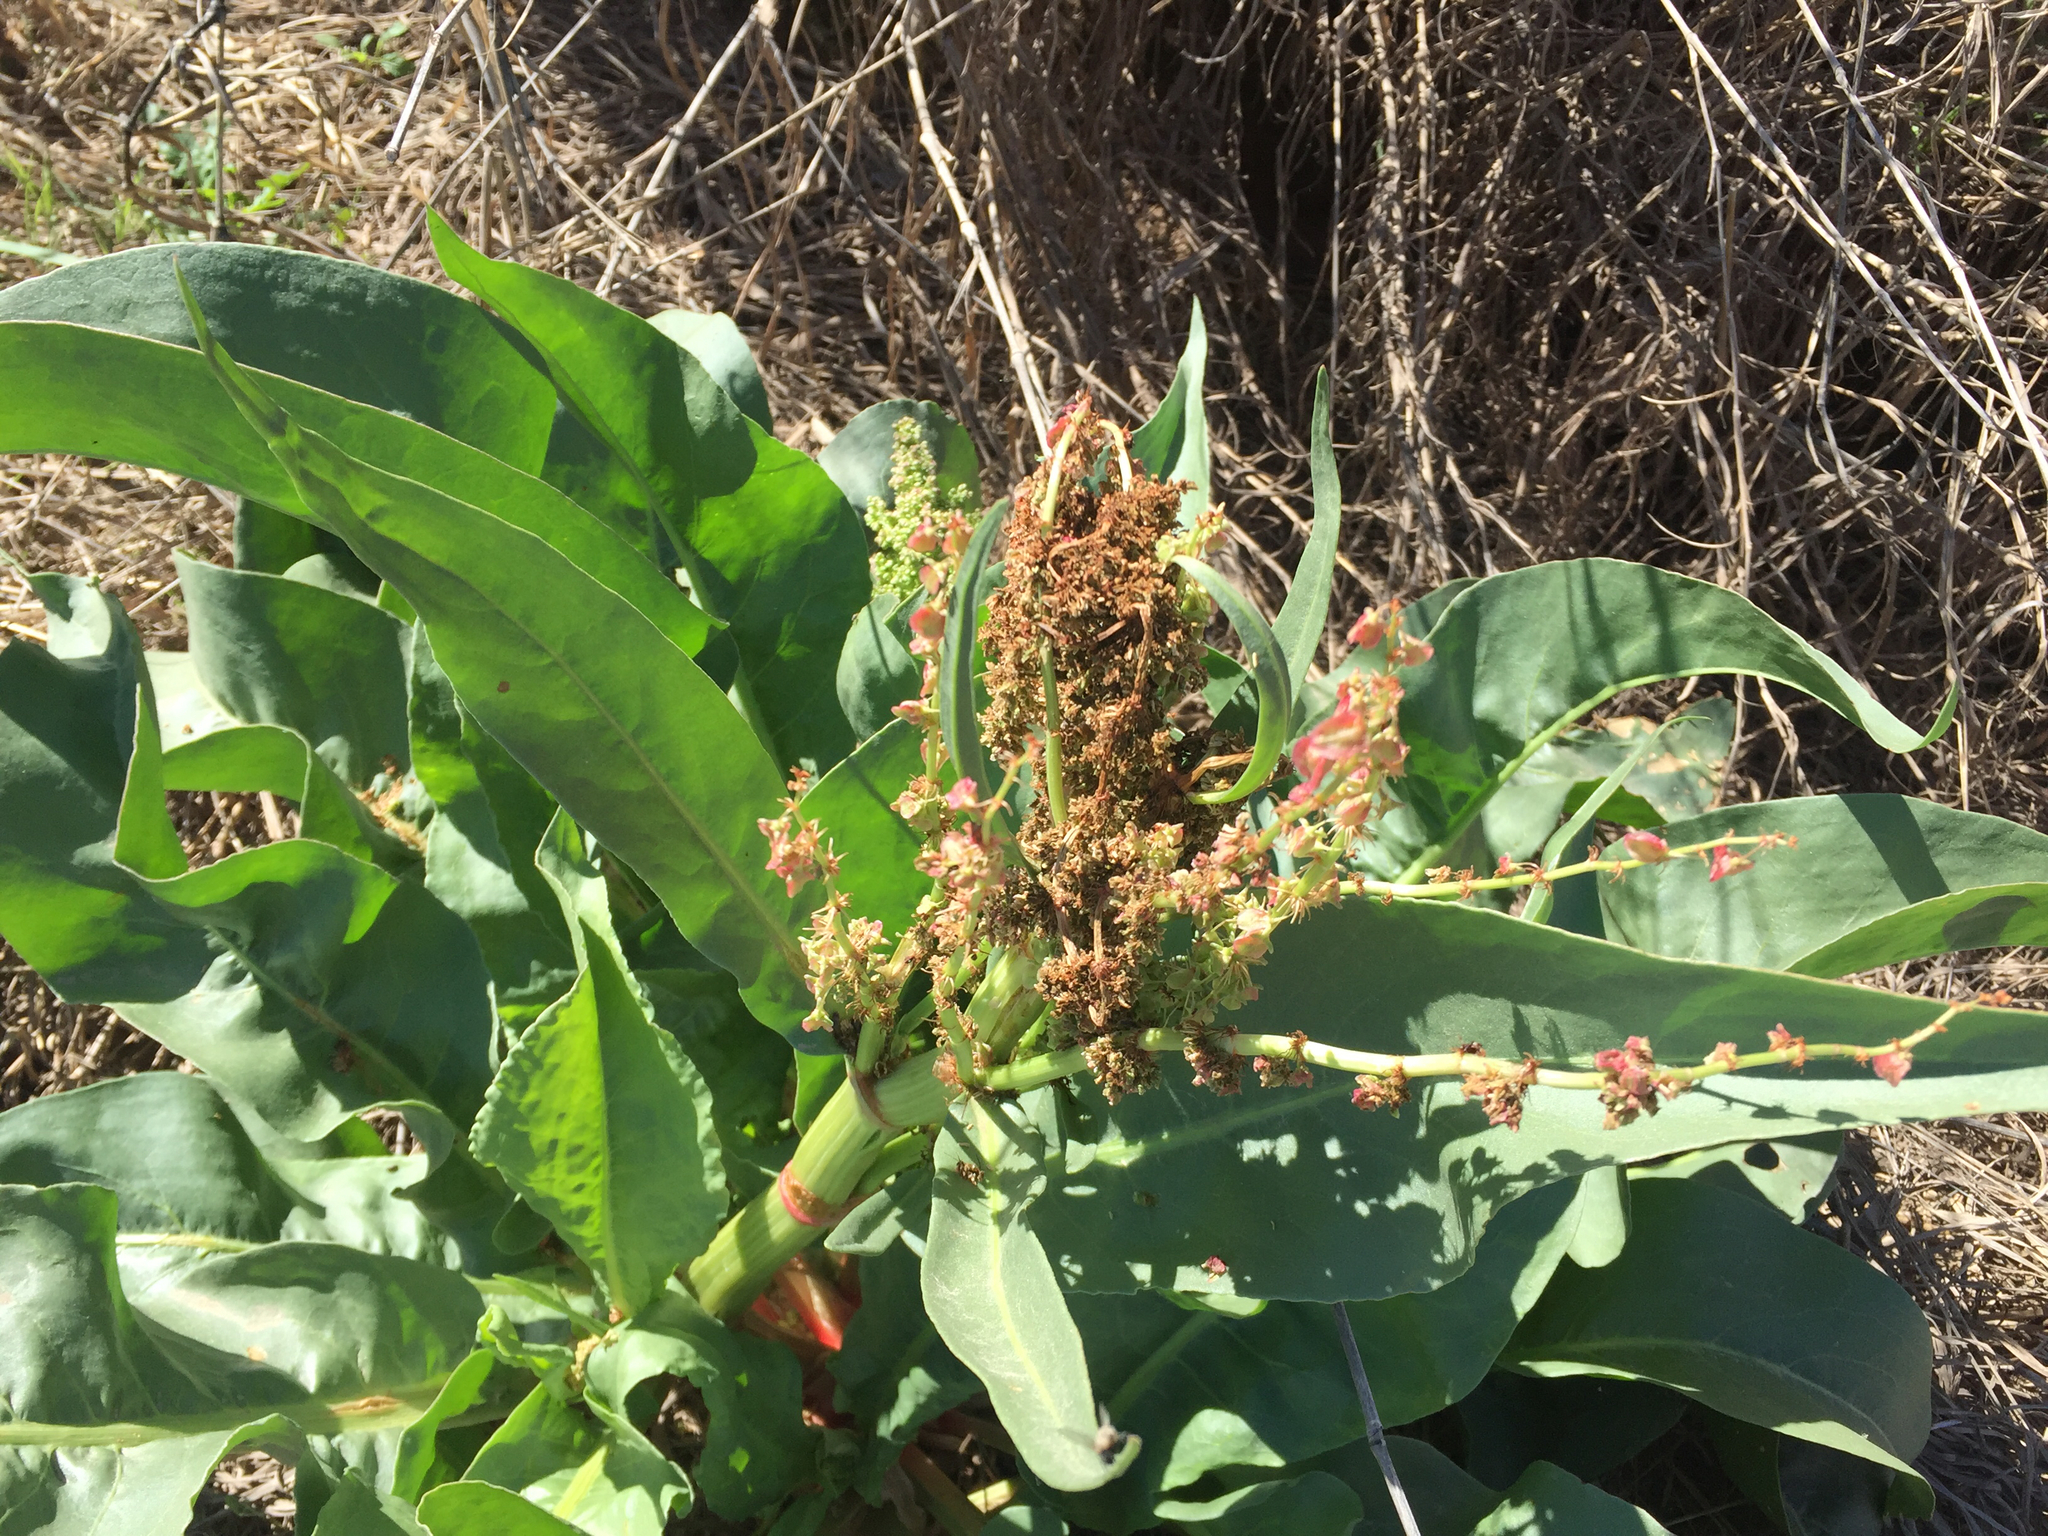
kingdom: Plantae
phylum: Tracheophyta
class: Magnoliopsida
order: Caryophyllales
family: Polygonaceae
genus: Rumex
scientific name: Rumex hymenosepalus
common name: Ganagra
